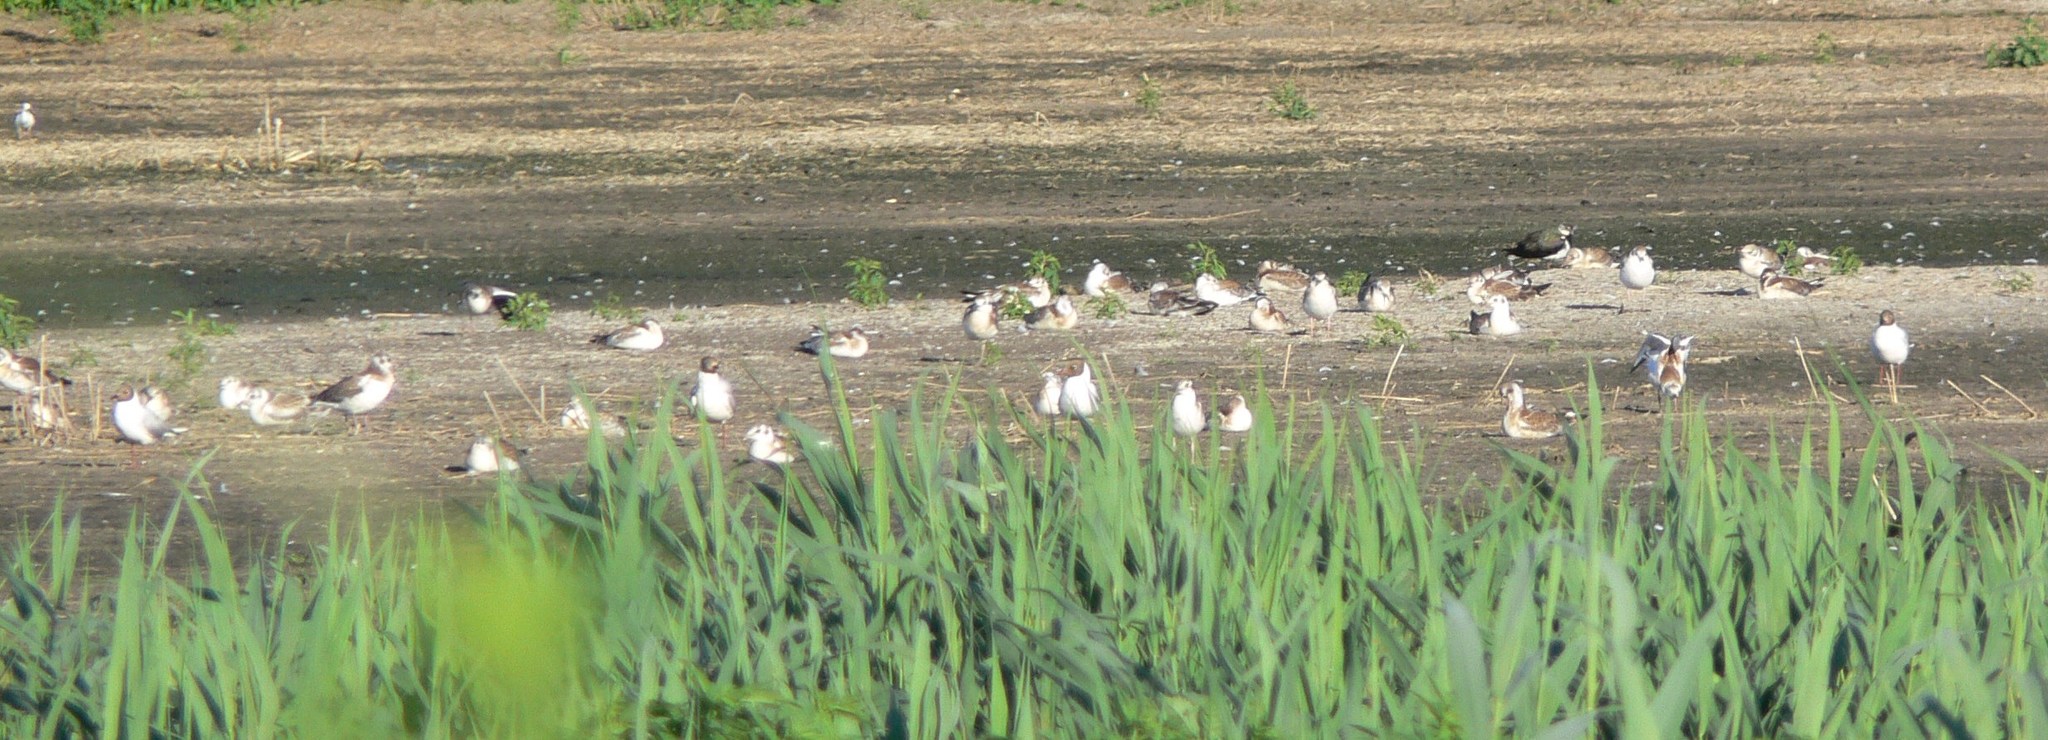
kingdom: Animalia
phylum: Chordata
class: Aves
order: Charadriiformes
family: Laridae
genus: Chroicocephalus
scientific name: Chroicocephalus ridibundus
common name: Black-headed gull
